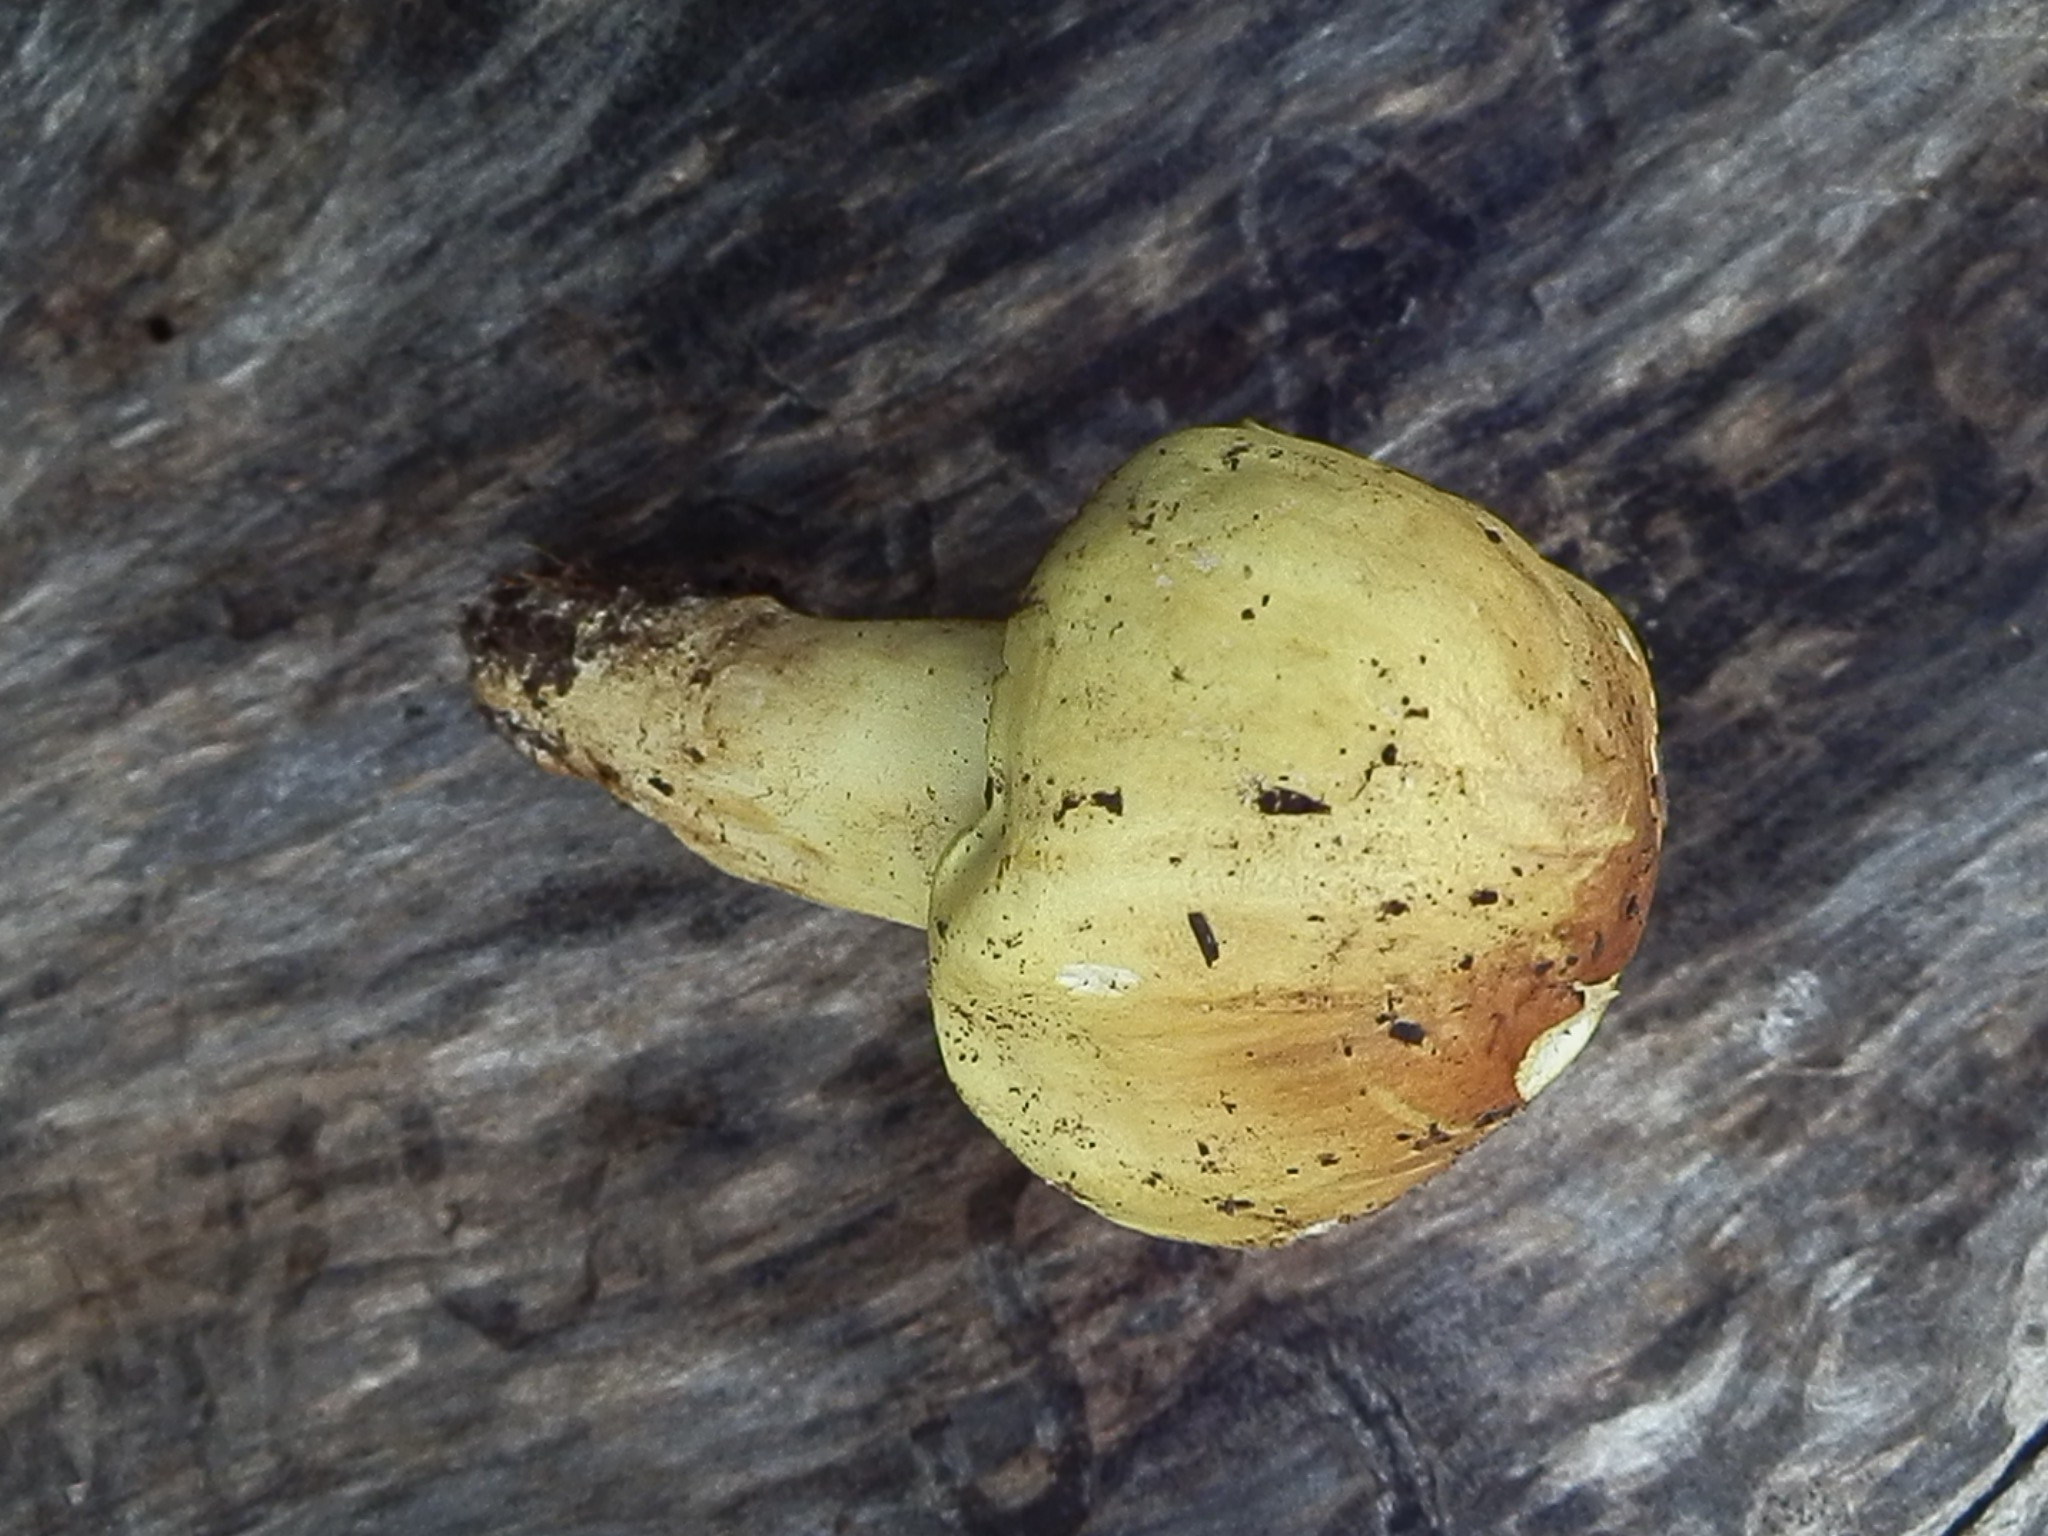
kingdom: Fungi
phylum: Basidiomycota
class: Agaricomycetes
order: Agaricales
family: Tricholomataceae
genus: Tricholoma
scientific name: Tricholoma equestre
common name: Yellow knight
